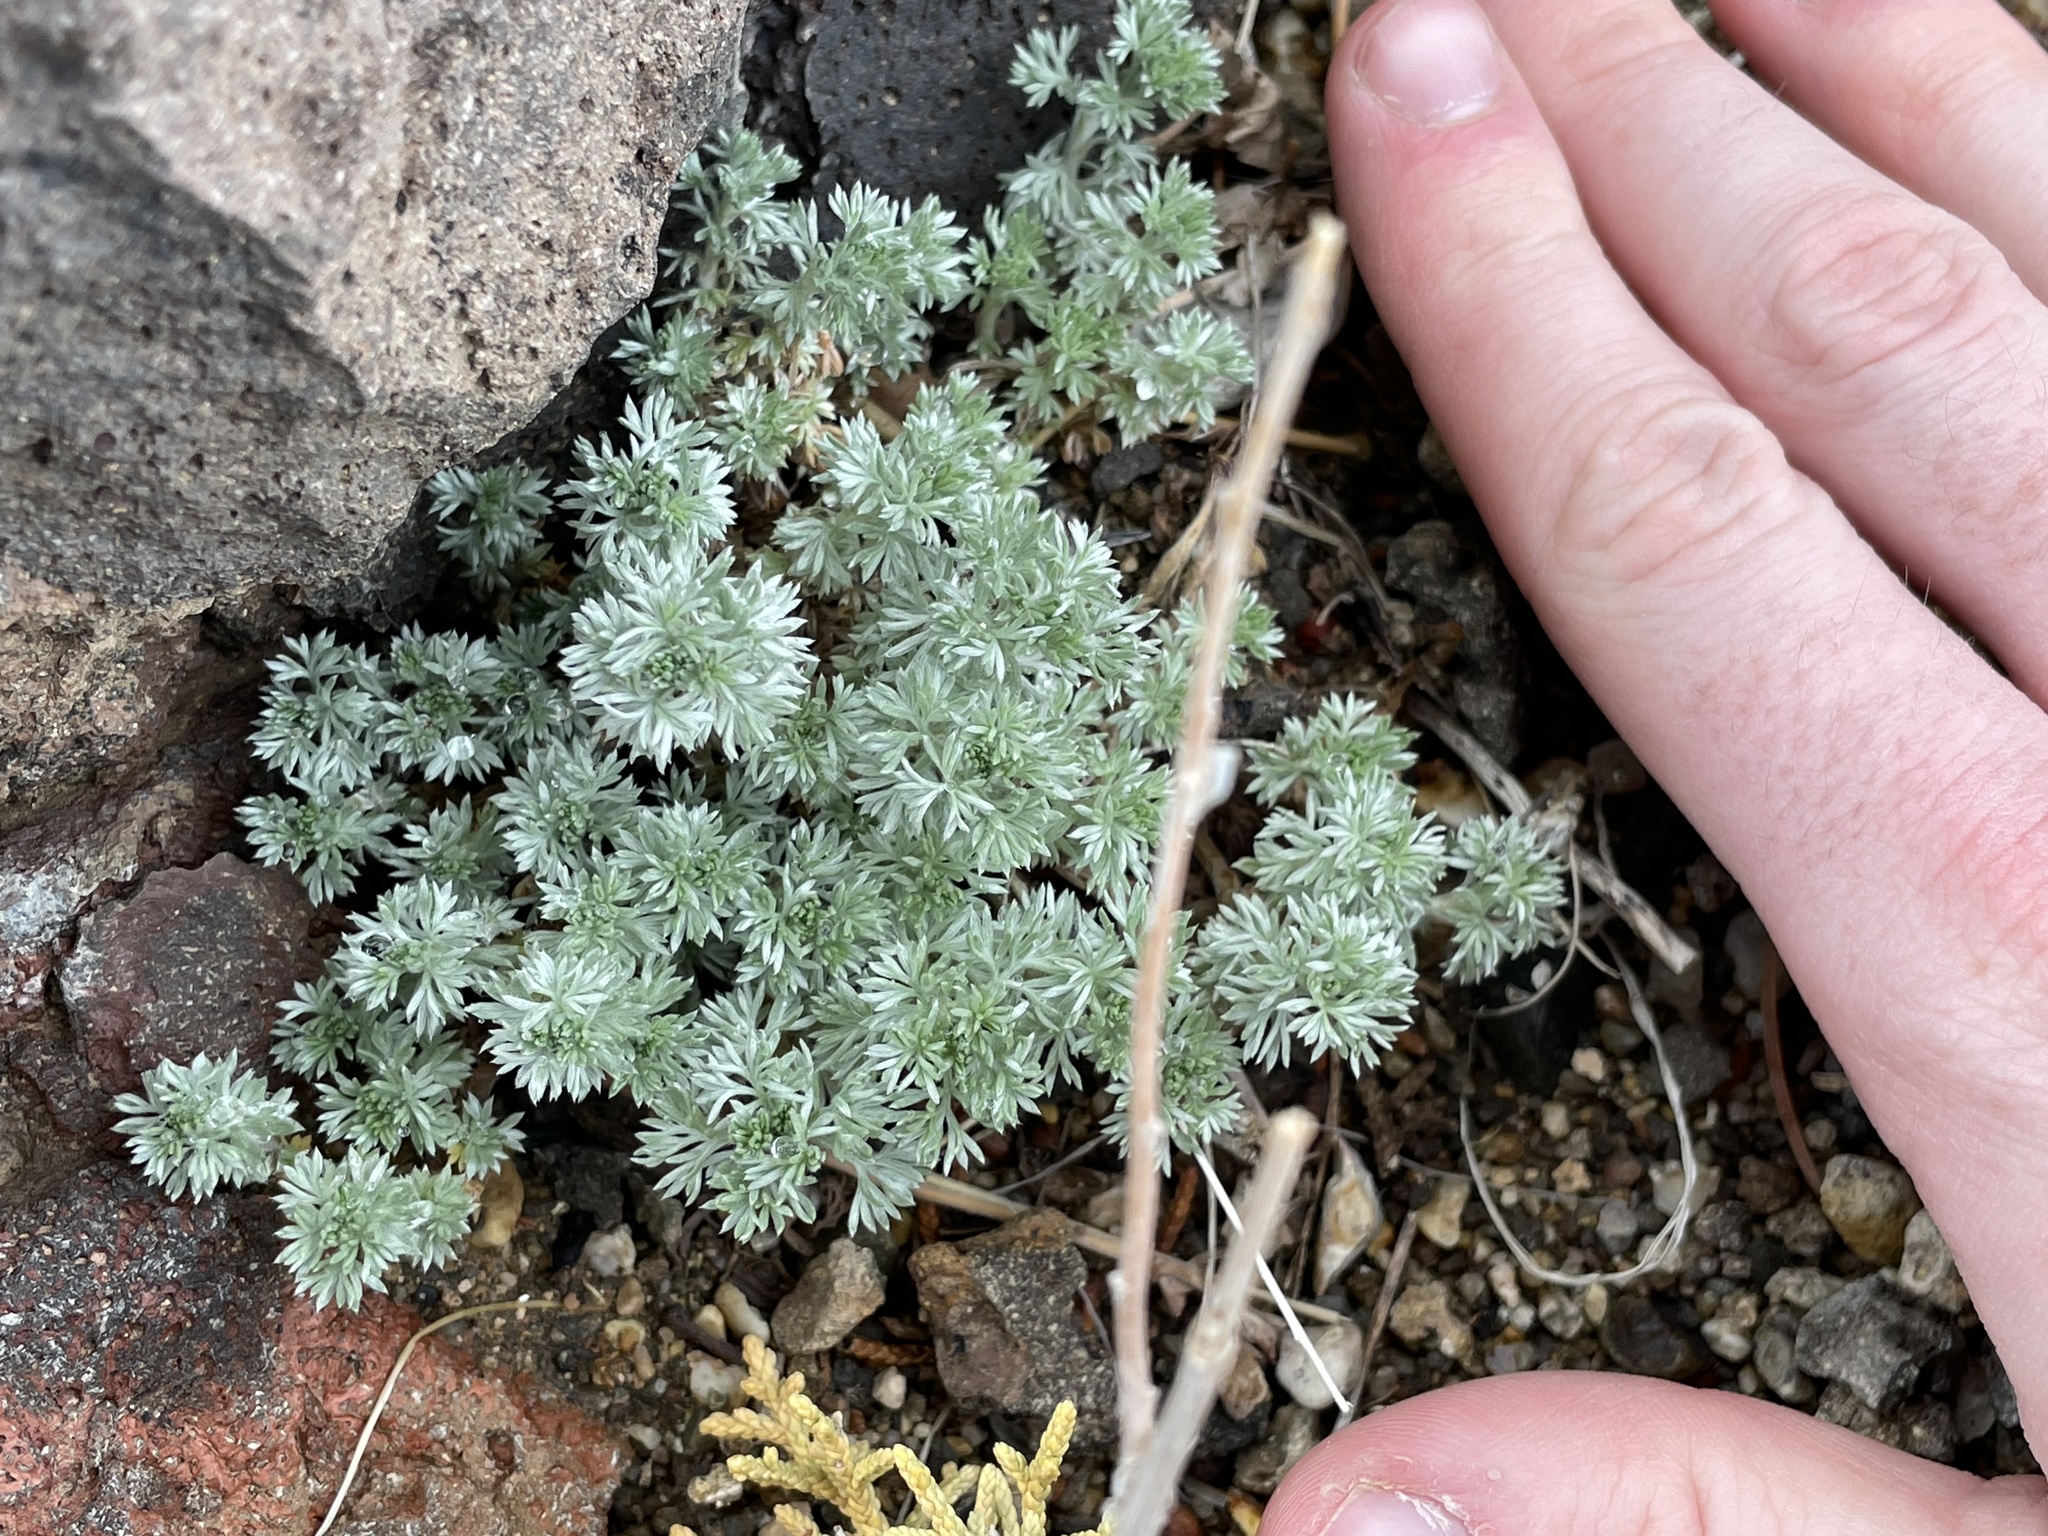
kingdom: Plantae
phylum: Tracheophyta
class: Magnoliopsida
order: Asterales
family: Asteraceae
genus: Artemisia
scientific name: Artemisia frigida
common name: Prairie sagewort
